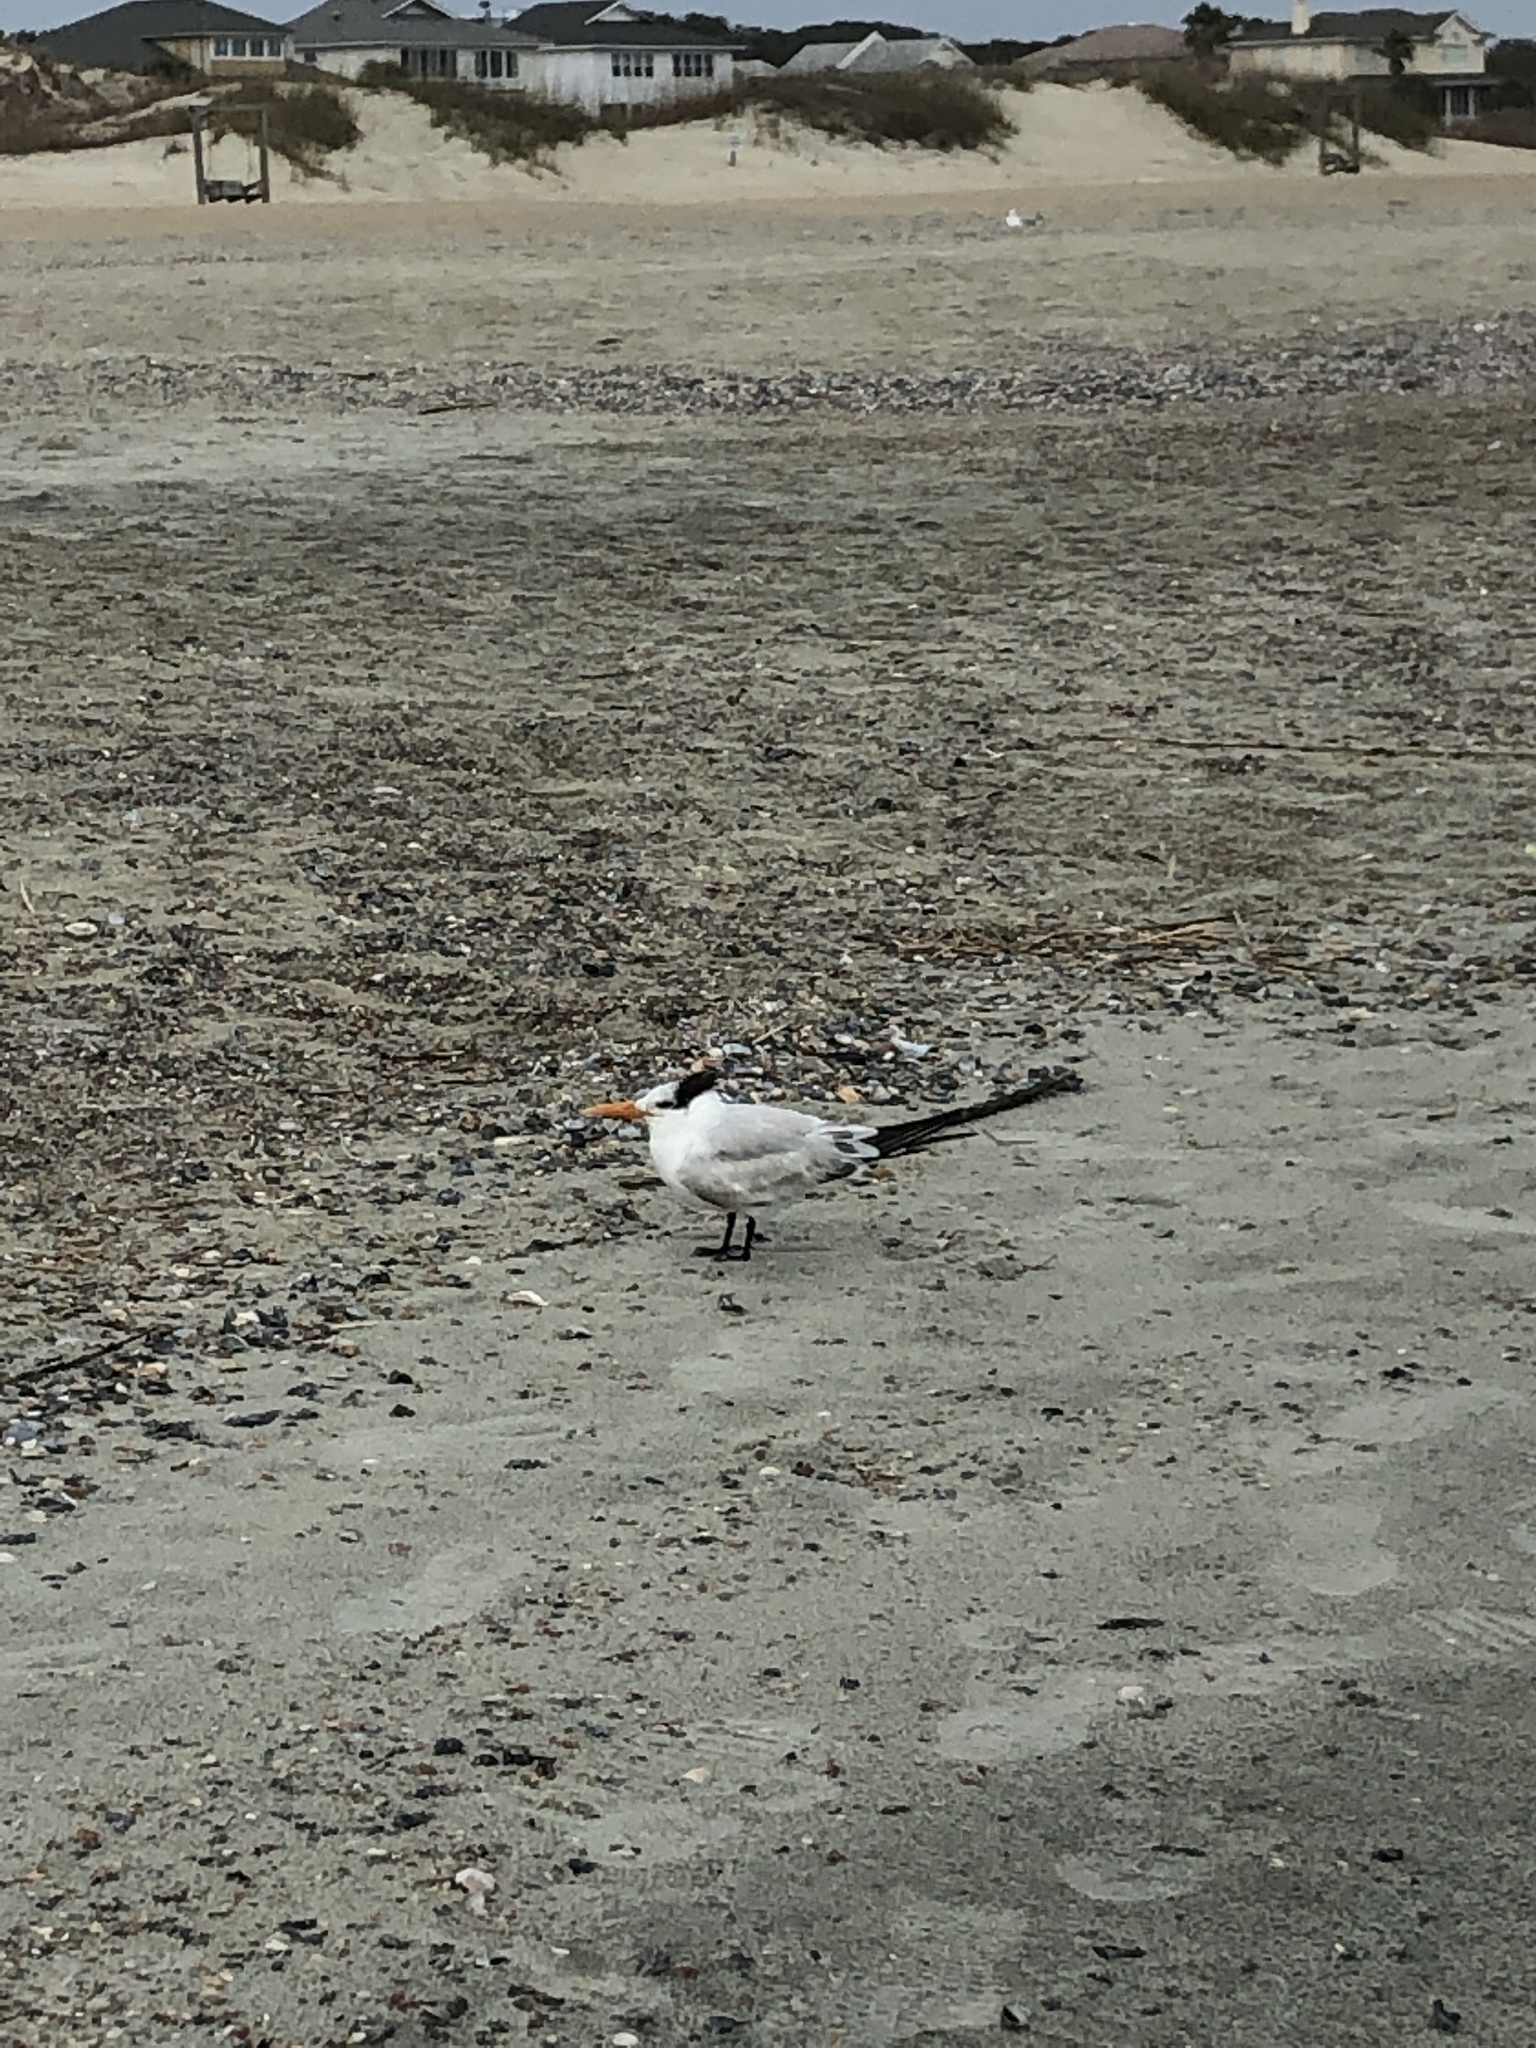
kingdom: Animalia
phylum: Chordata
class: Aves
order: Charadriiformes
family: Laridae
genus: Thalasseus
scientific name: Thalasseus maximus
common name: Royal tern
